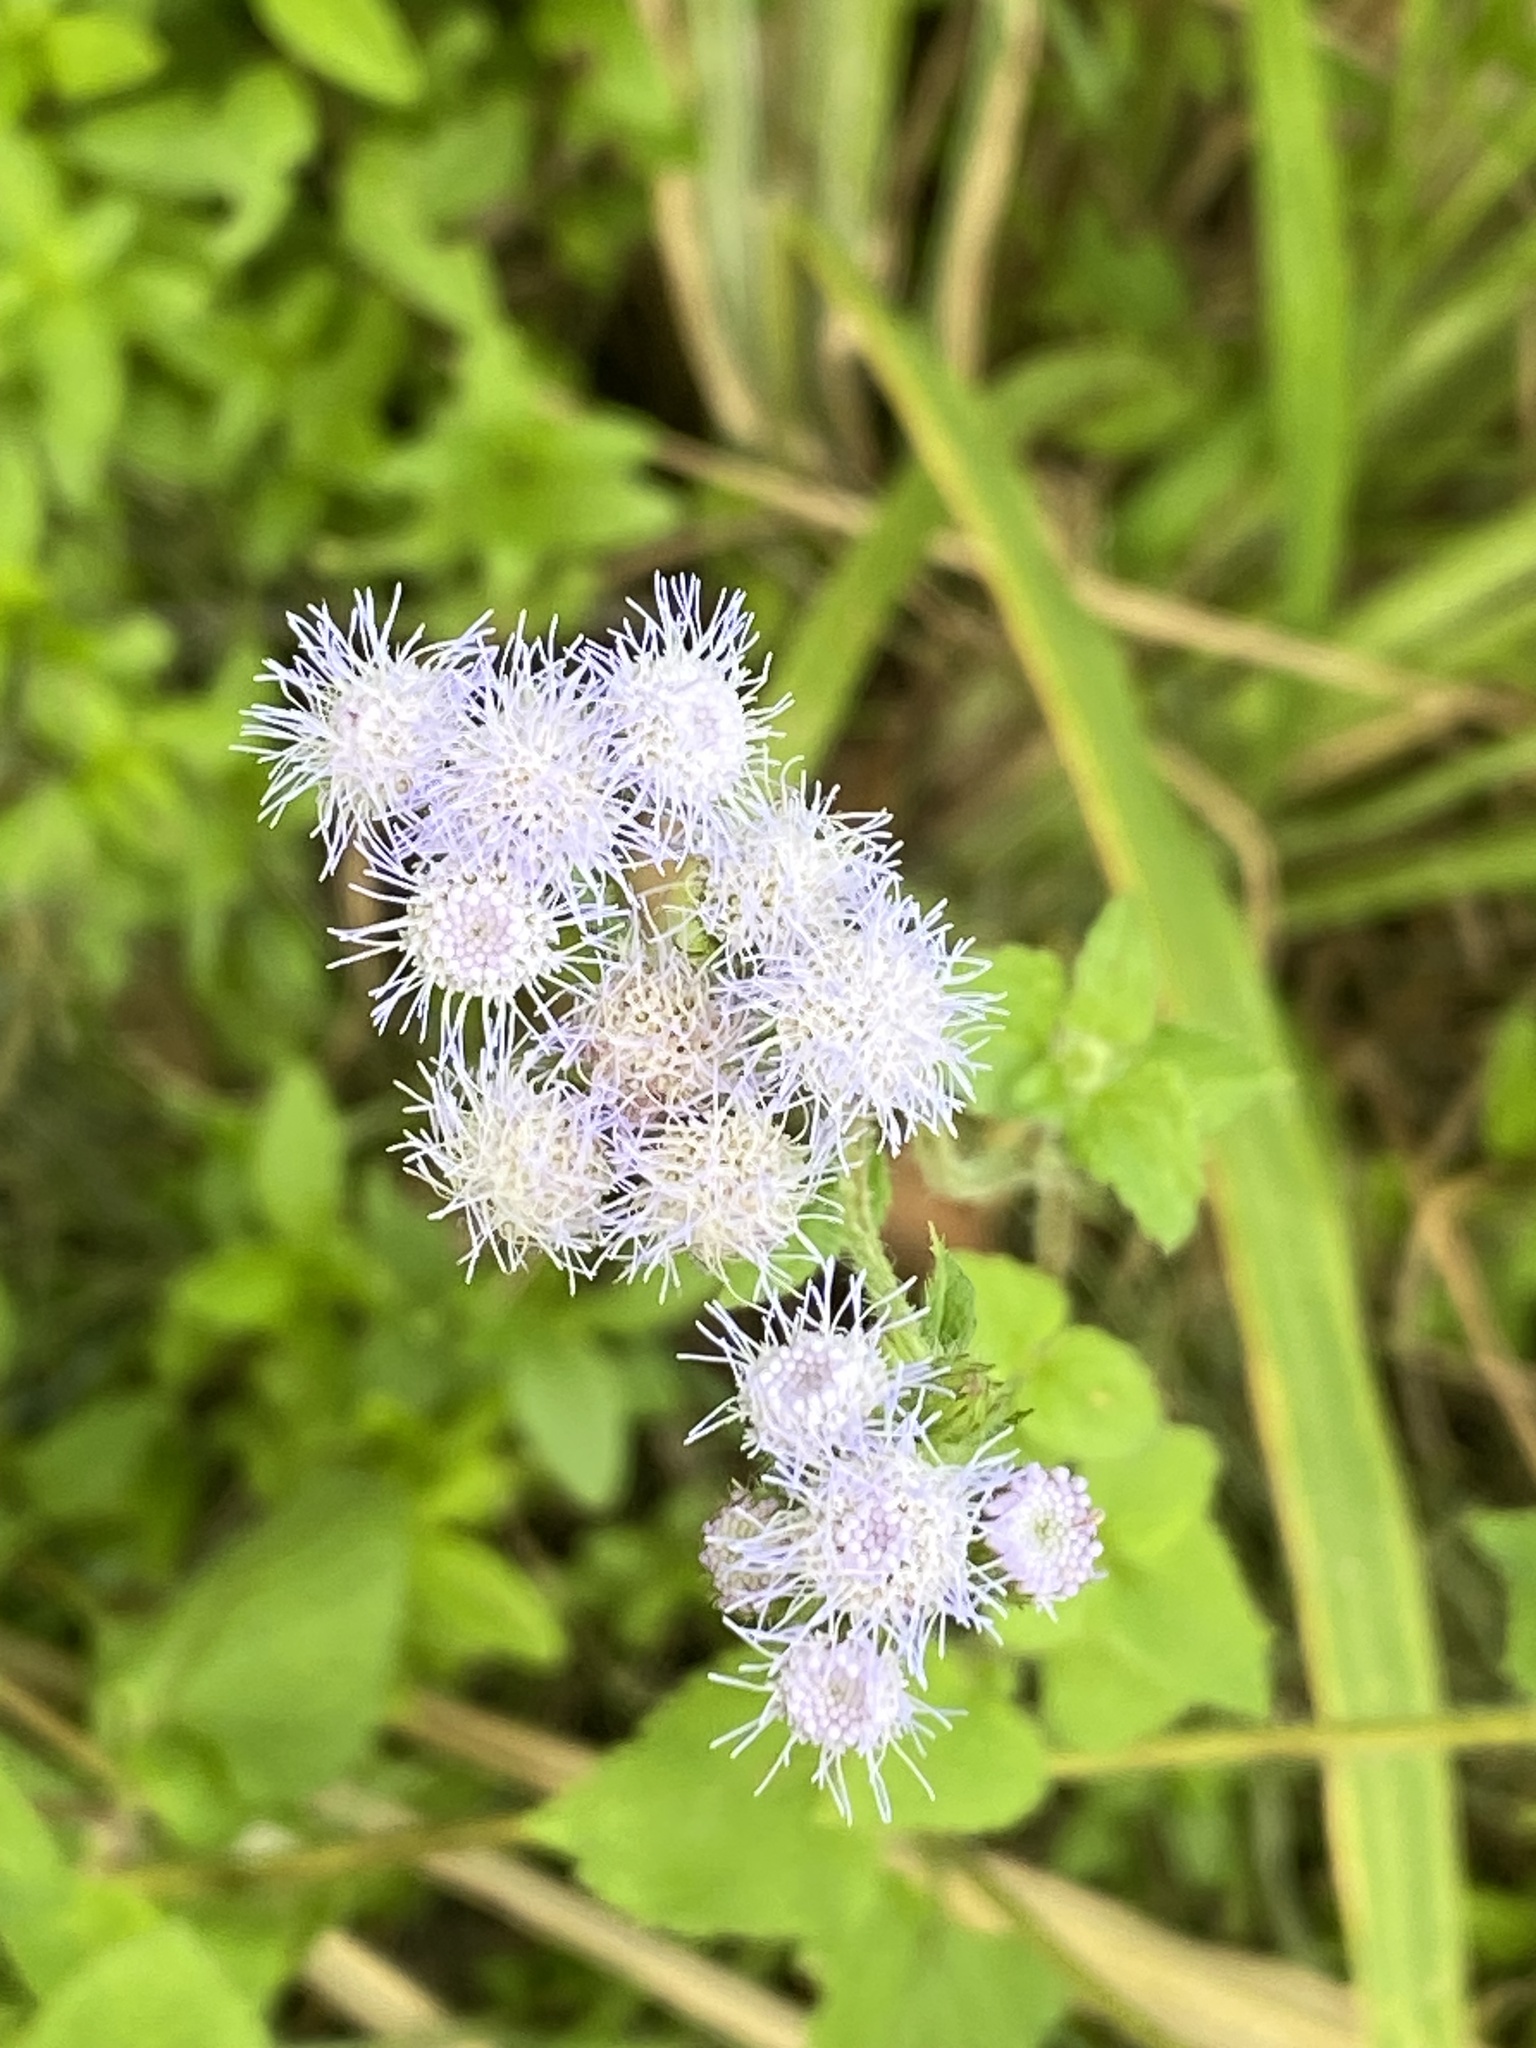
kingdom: Plantae
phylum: Tracheophyta
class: Magnoliopsida
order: Asterales
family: Asteraceae
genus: Ageratum
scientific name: Ageratum houstonianum
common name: Bluemink
